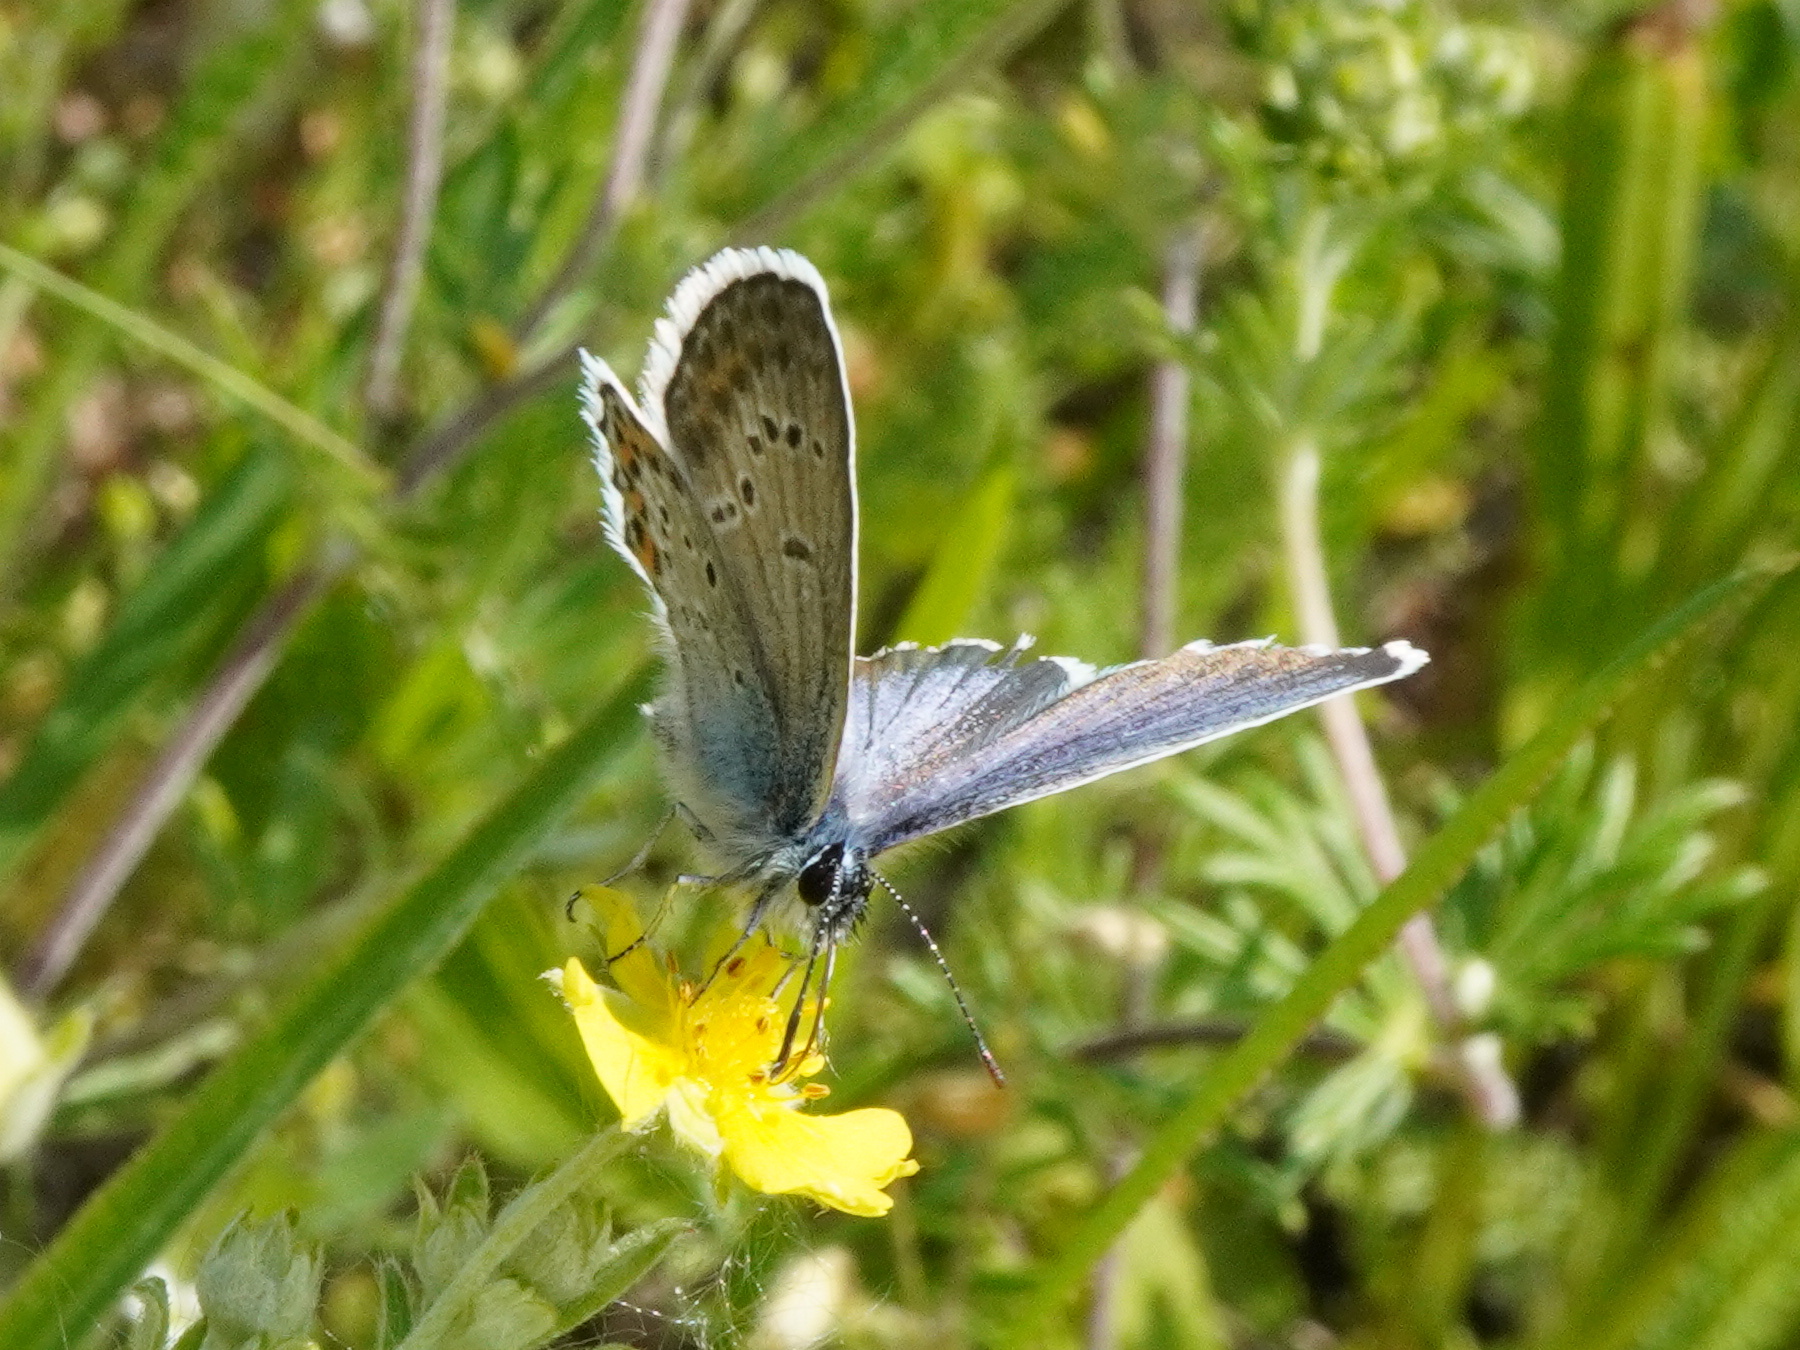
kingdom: Animalia
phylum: Arthropoda
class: Insecta
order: Lepidoptera
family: Lycaenidae
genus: Plebejus
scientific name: Plebejus argus
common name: Silver-studded blue
